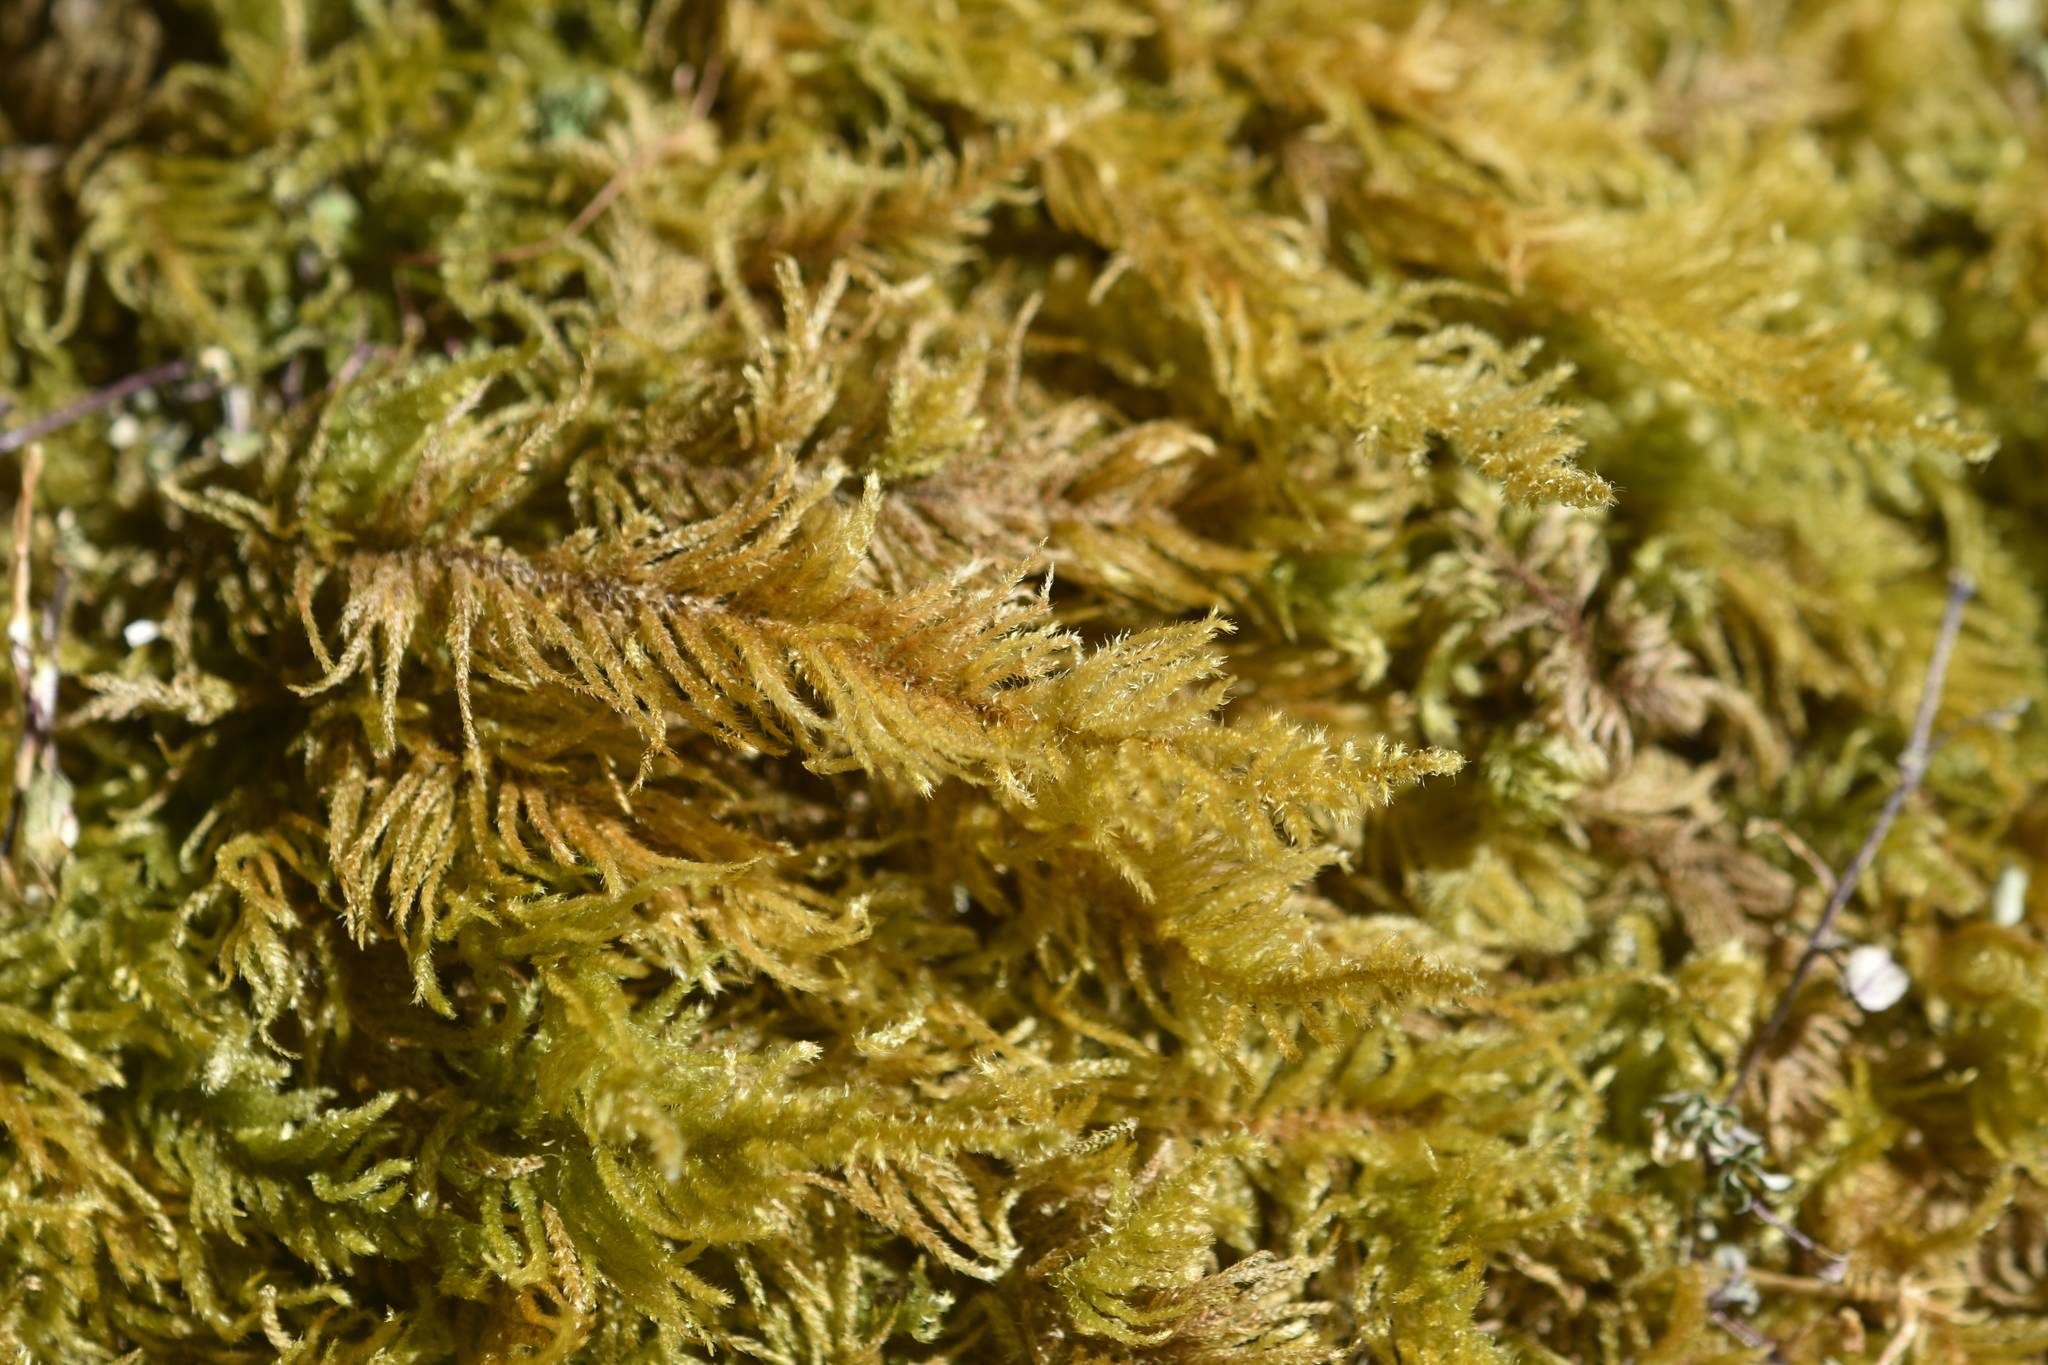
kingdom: Plantae
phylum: Bryophyta
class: Bryopsida
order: Hypnales
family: Brachytheciaceae
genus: Kindbergia
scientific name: Kindbergia oregana
